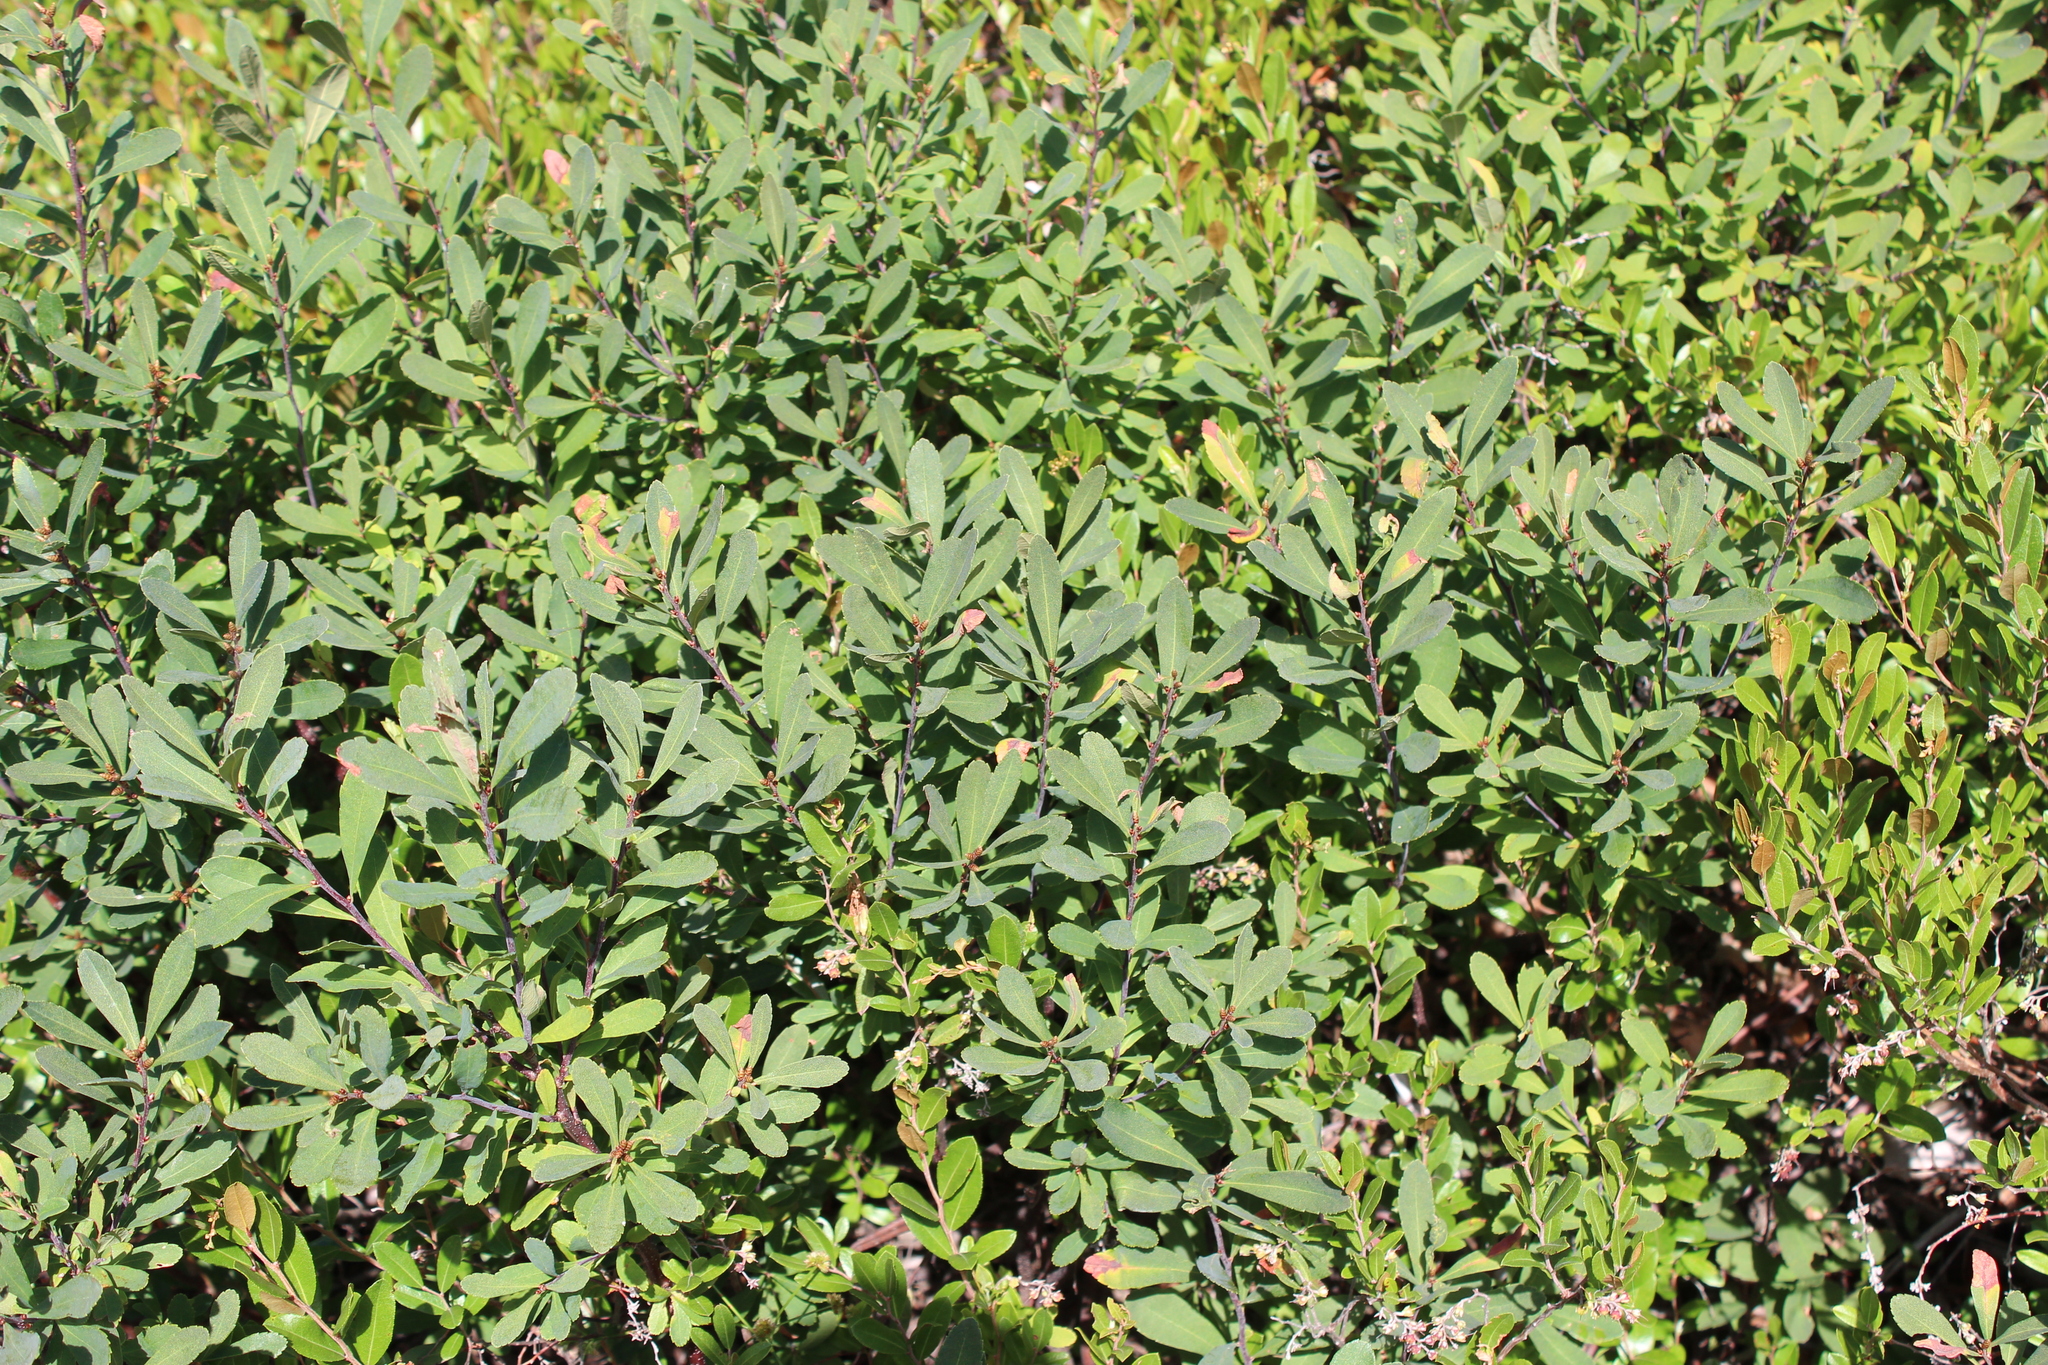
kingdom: Plantae
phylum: Tracheophyta
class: Magnoliopsida
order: Fagales
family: Myricaceae
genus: Myrica
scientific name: Myrica gale
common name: Sweet gale
